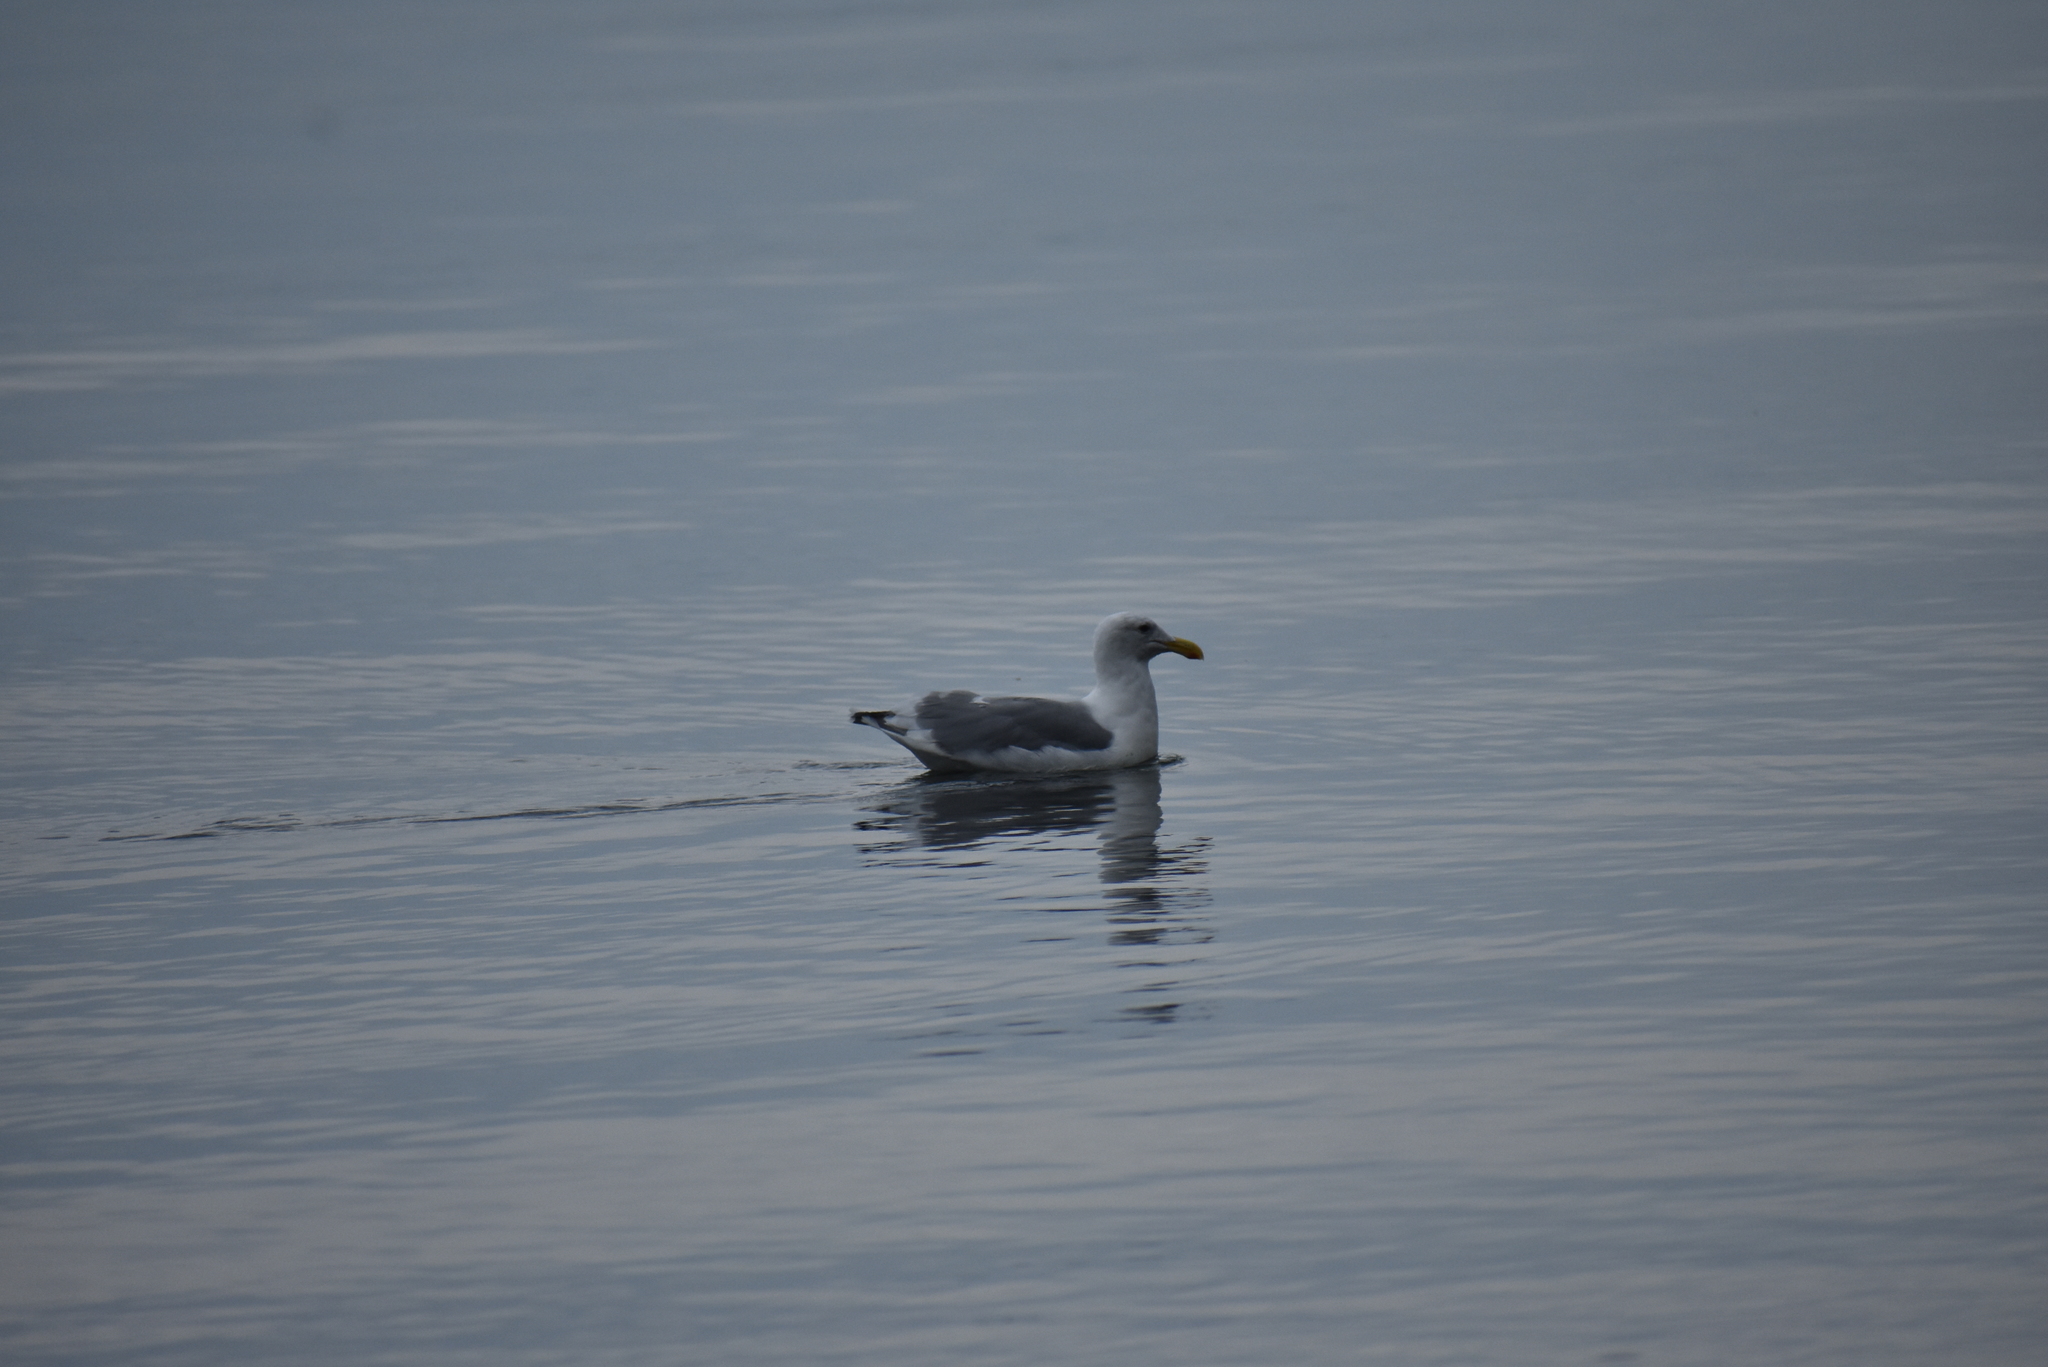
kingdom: Animalia
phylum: Chordata
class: Aves
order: Charadriiformes
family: Laridae
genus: Larus
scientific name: Larus
